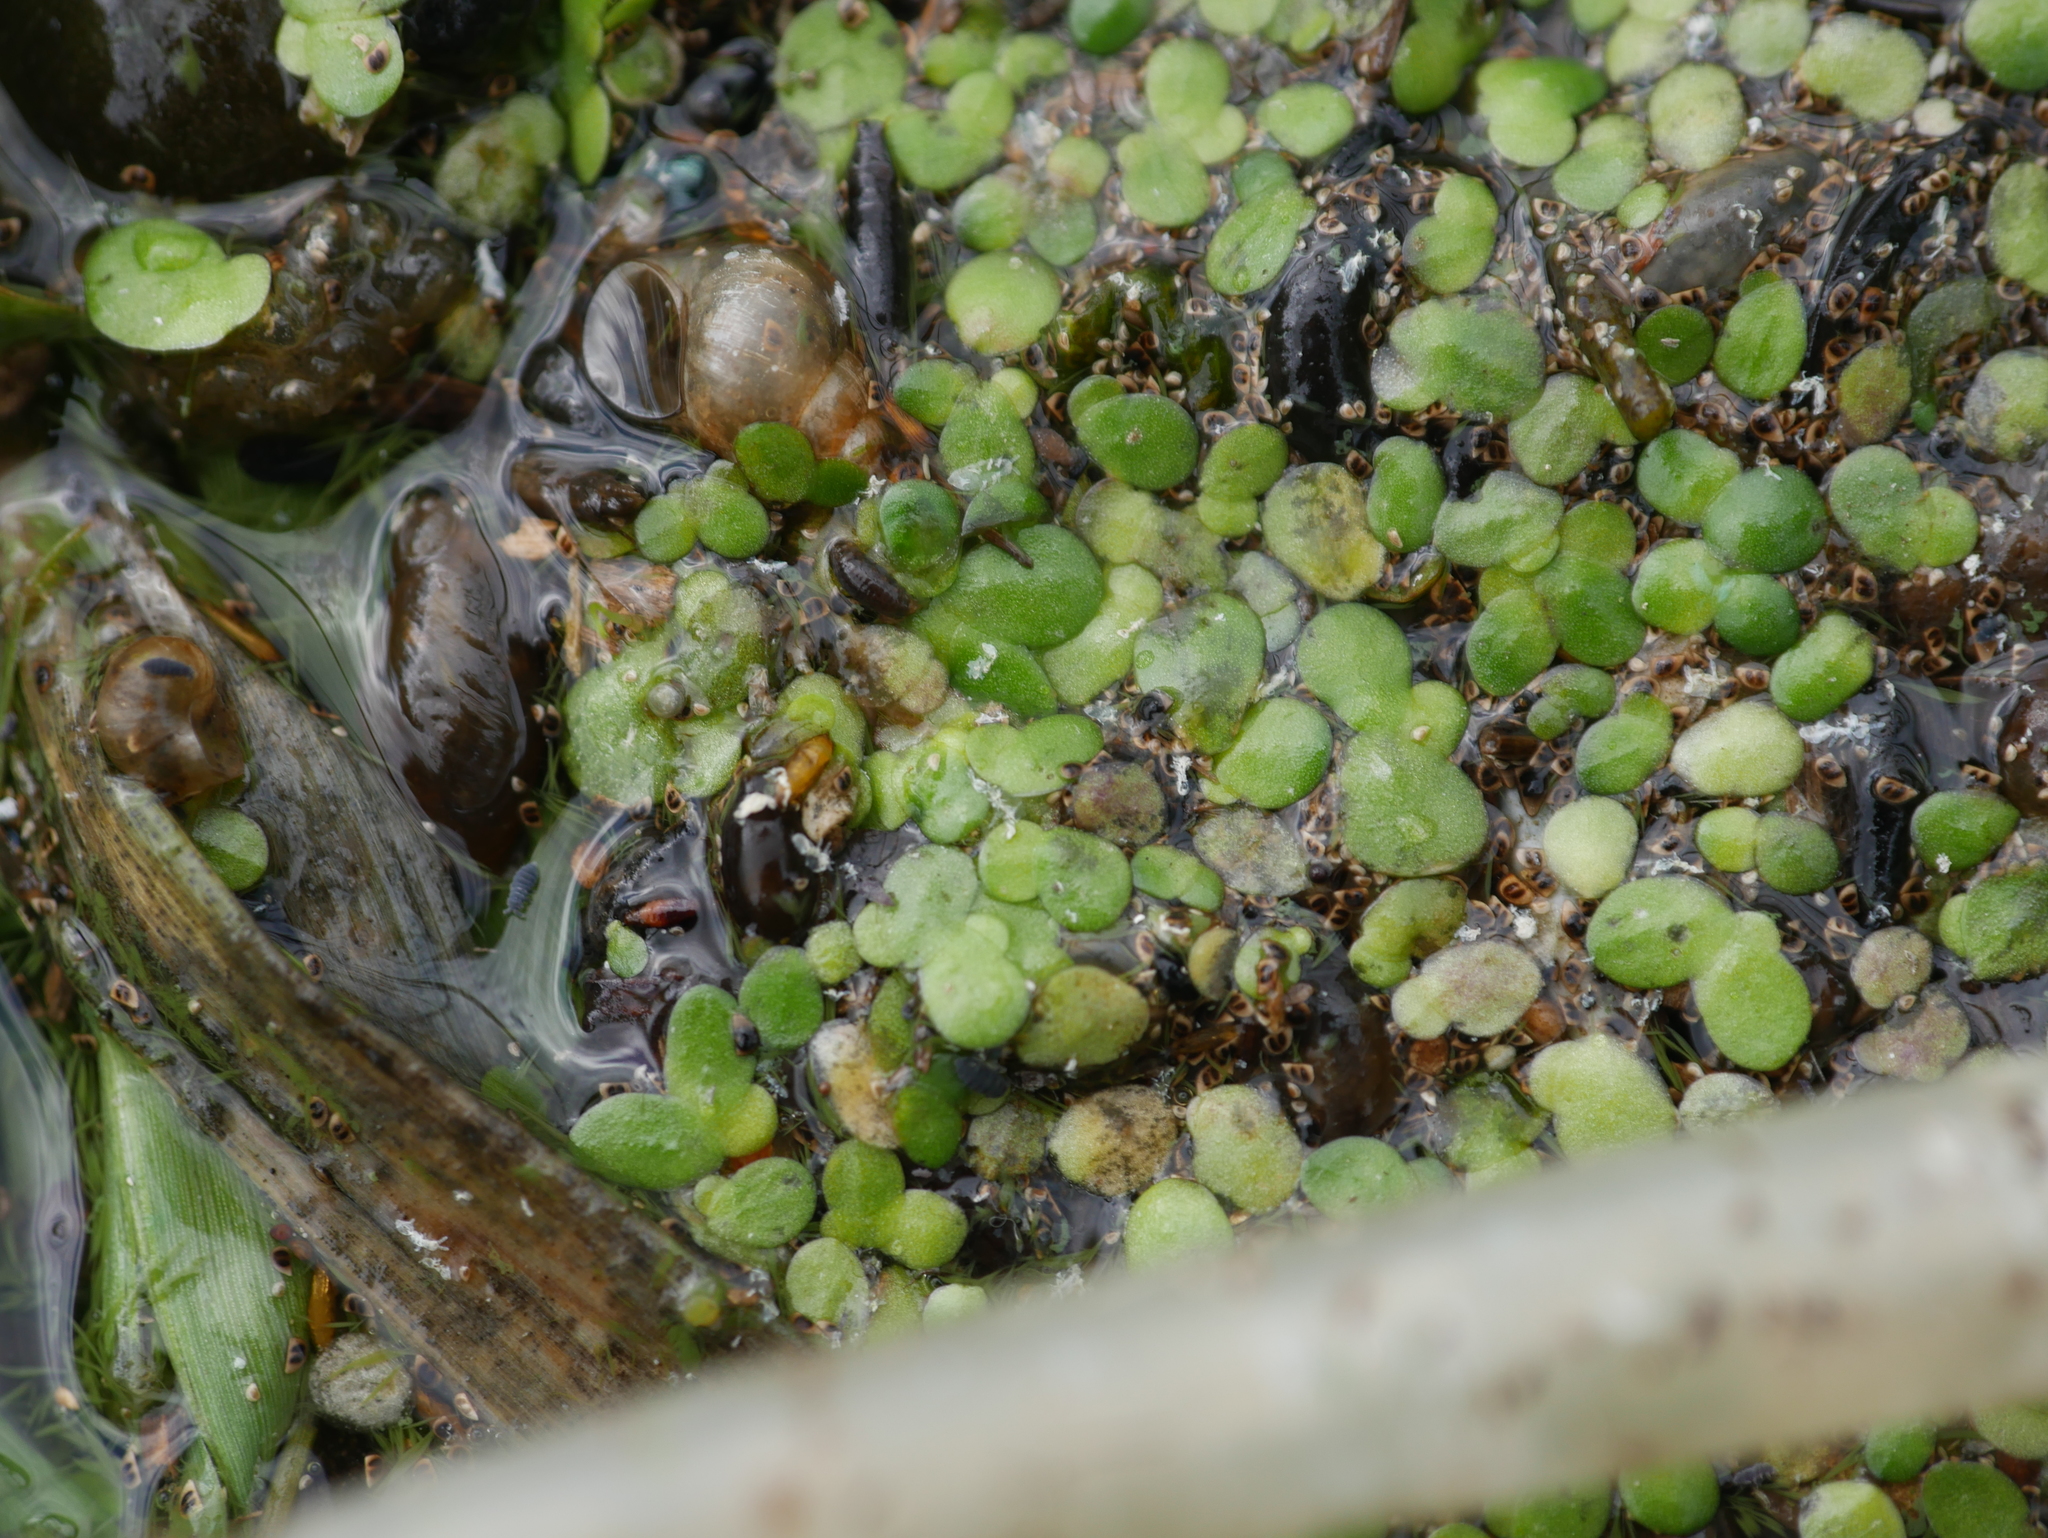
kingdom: Plantae
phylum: Tracheophyta
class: Liliopsida
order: Alismatales
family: Araceae
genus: Lemna
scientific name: Lemna minor
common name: Common duckweed
